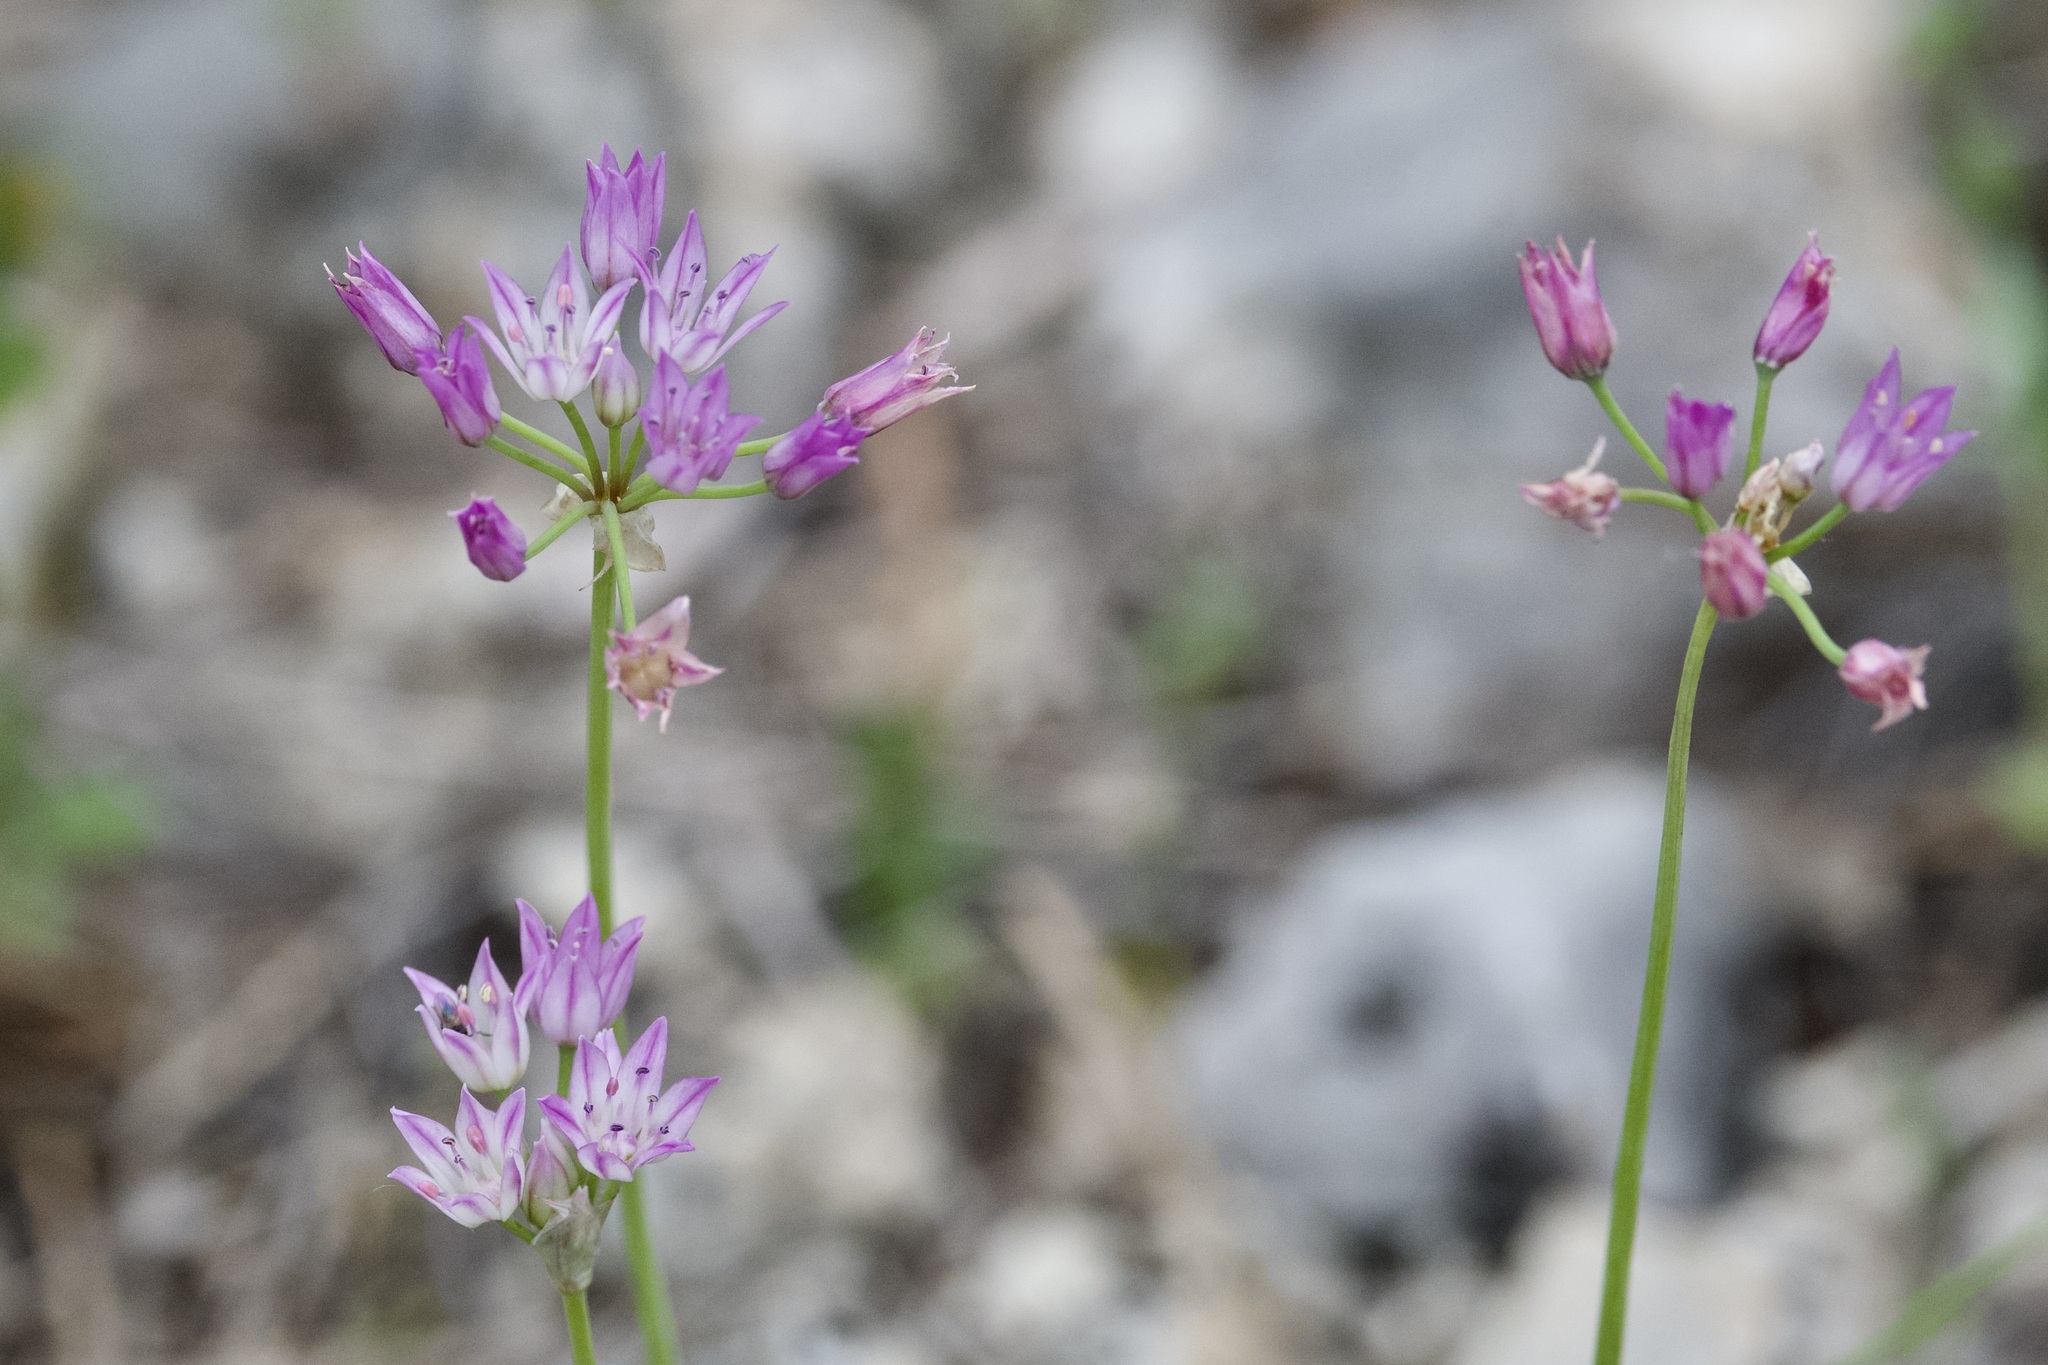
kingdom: Plantae
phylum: Tracheophyta
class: Liliopsida
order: Asparagales
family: Amaryllidaceae
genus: Allium
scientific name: Allium drummondii
